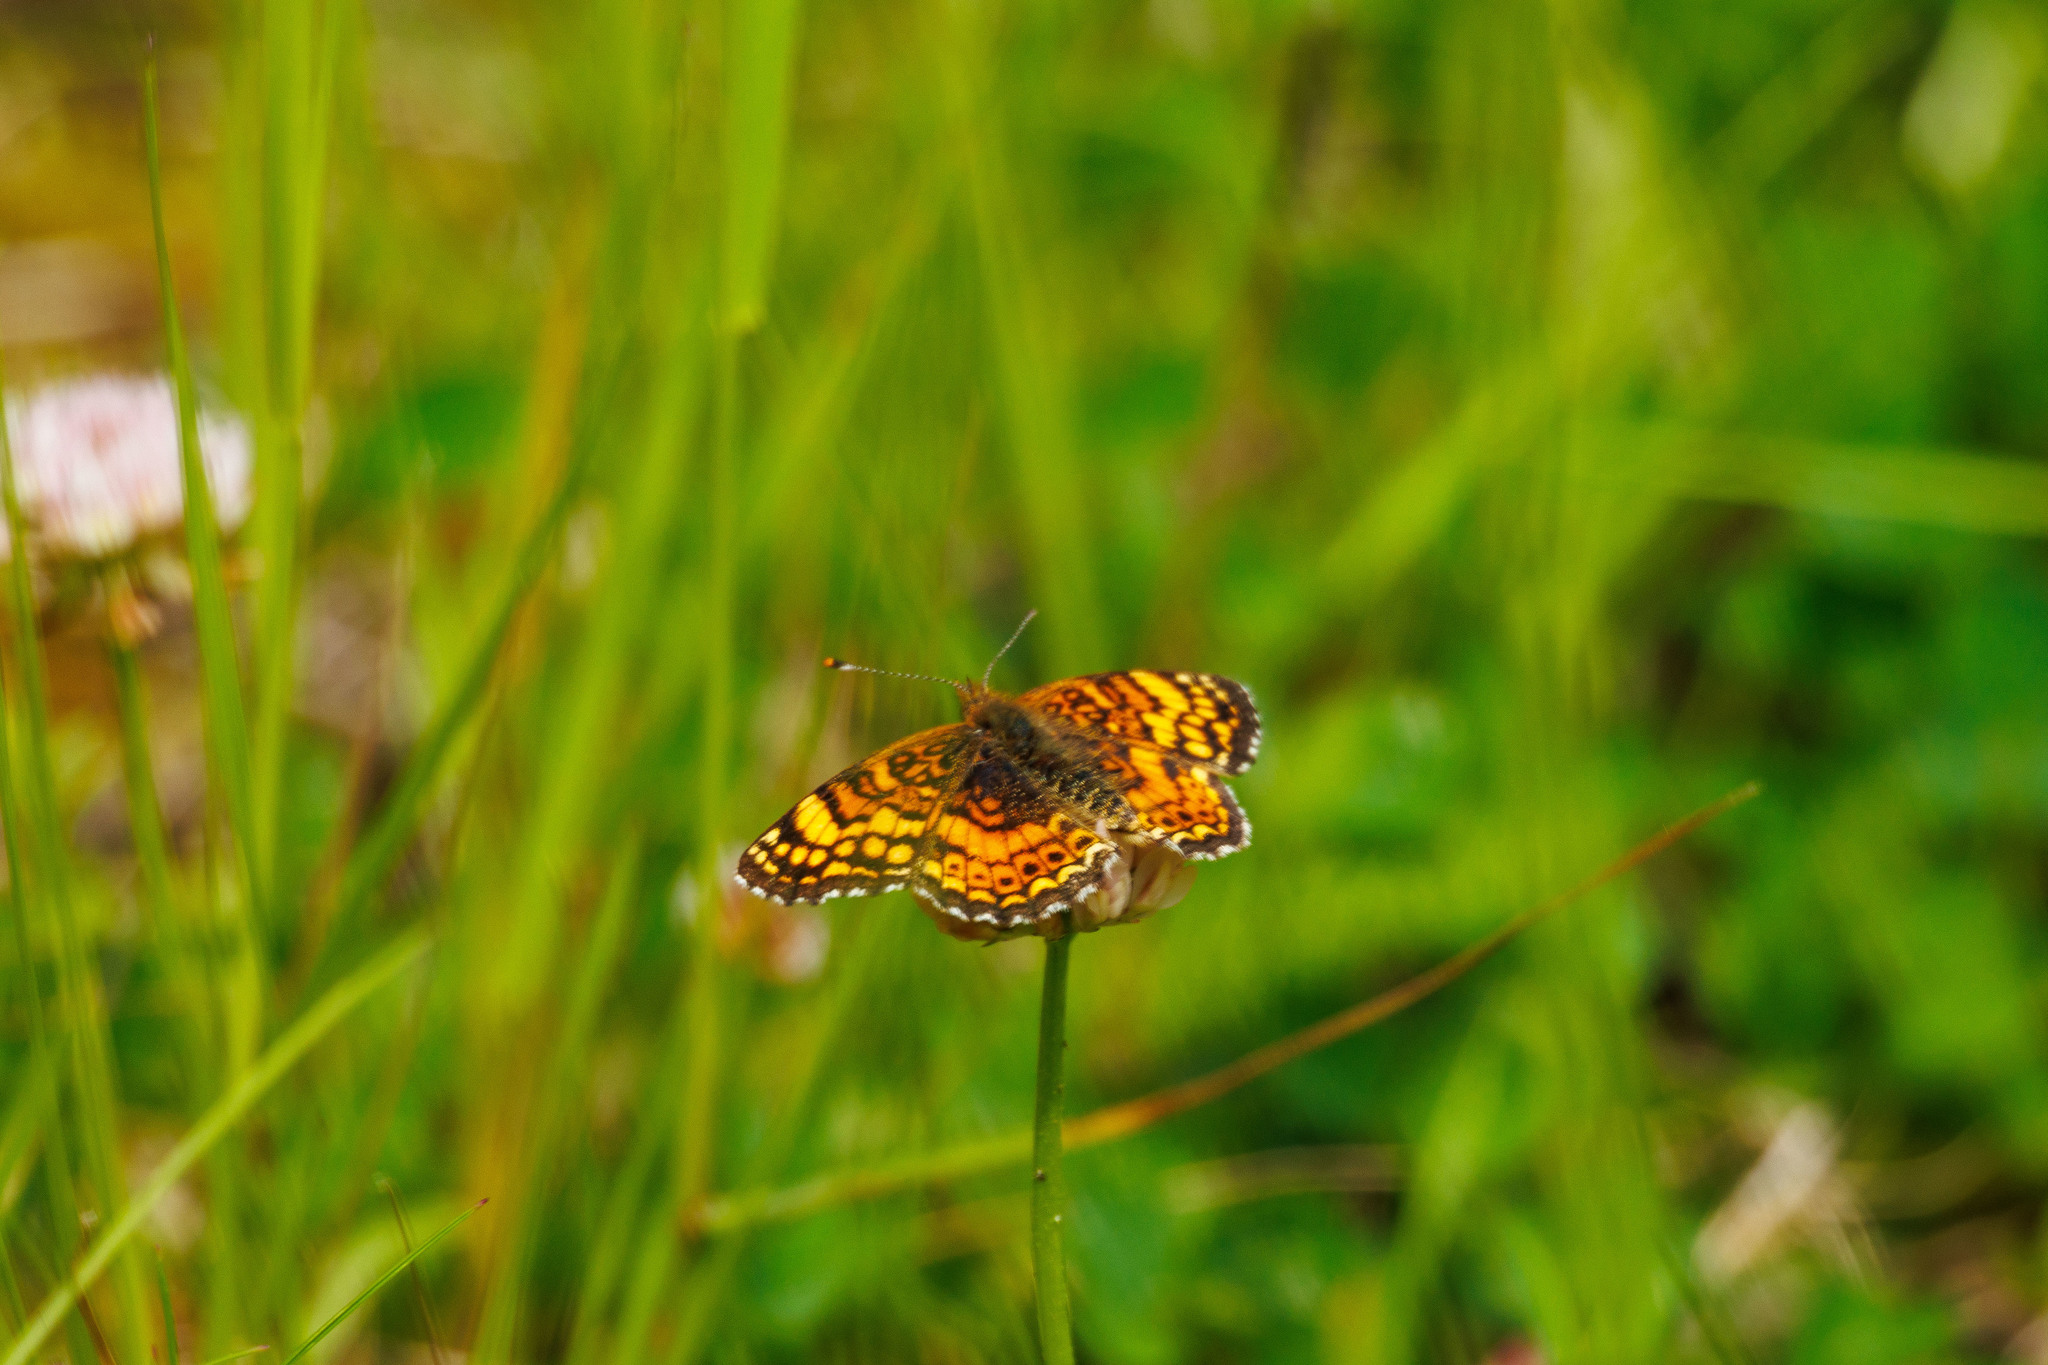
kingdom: Animalia
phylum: Arthropoda
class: Insecta
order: Lepidoptera
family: Nymphalidae
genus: Eresia
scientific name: Eresia aveyrona
